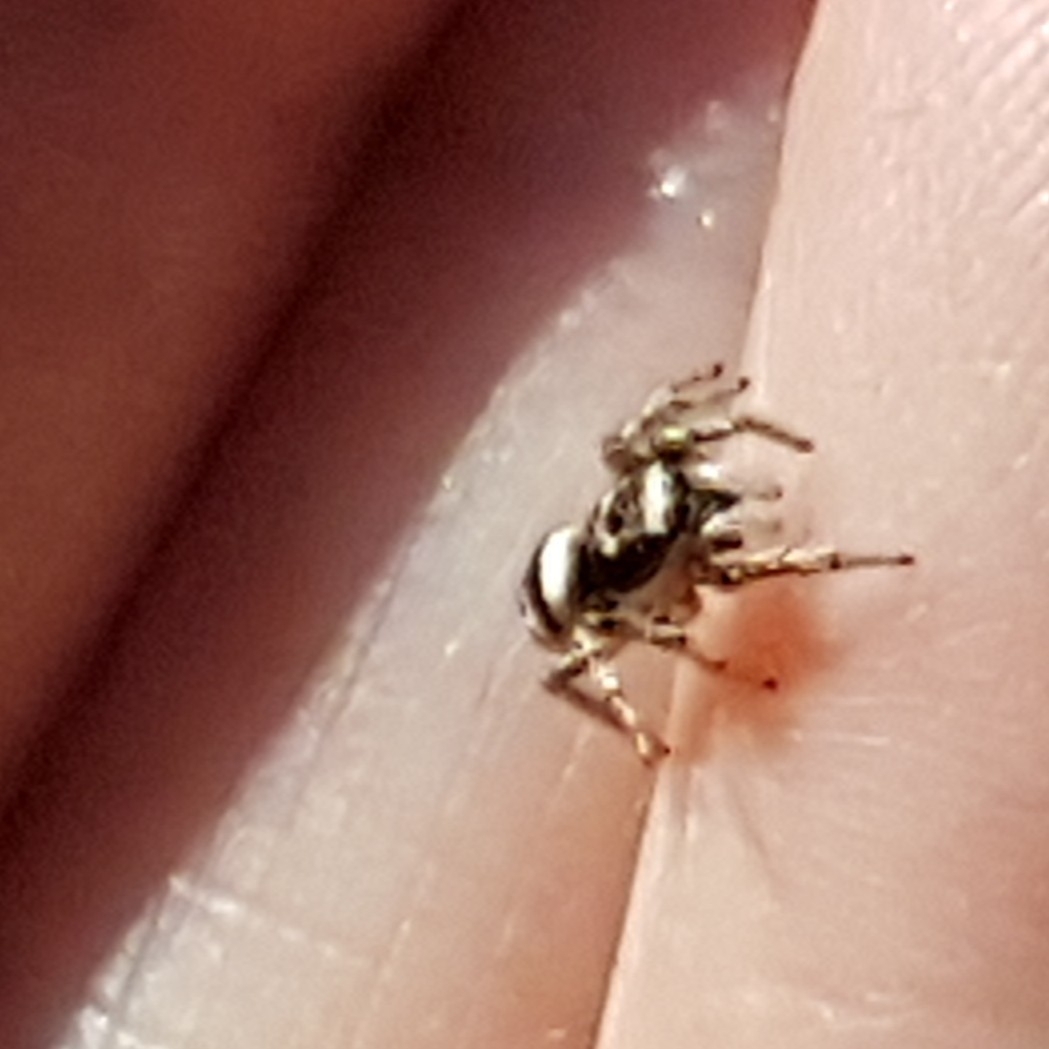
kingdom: Animalia
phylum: Arthropoda
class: Arachnida
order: Araneae
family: Salticidae
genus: Salticus
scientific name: Salticus scenicus
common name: Zebra jumper
